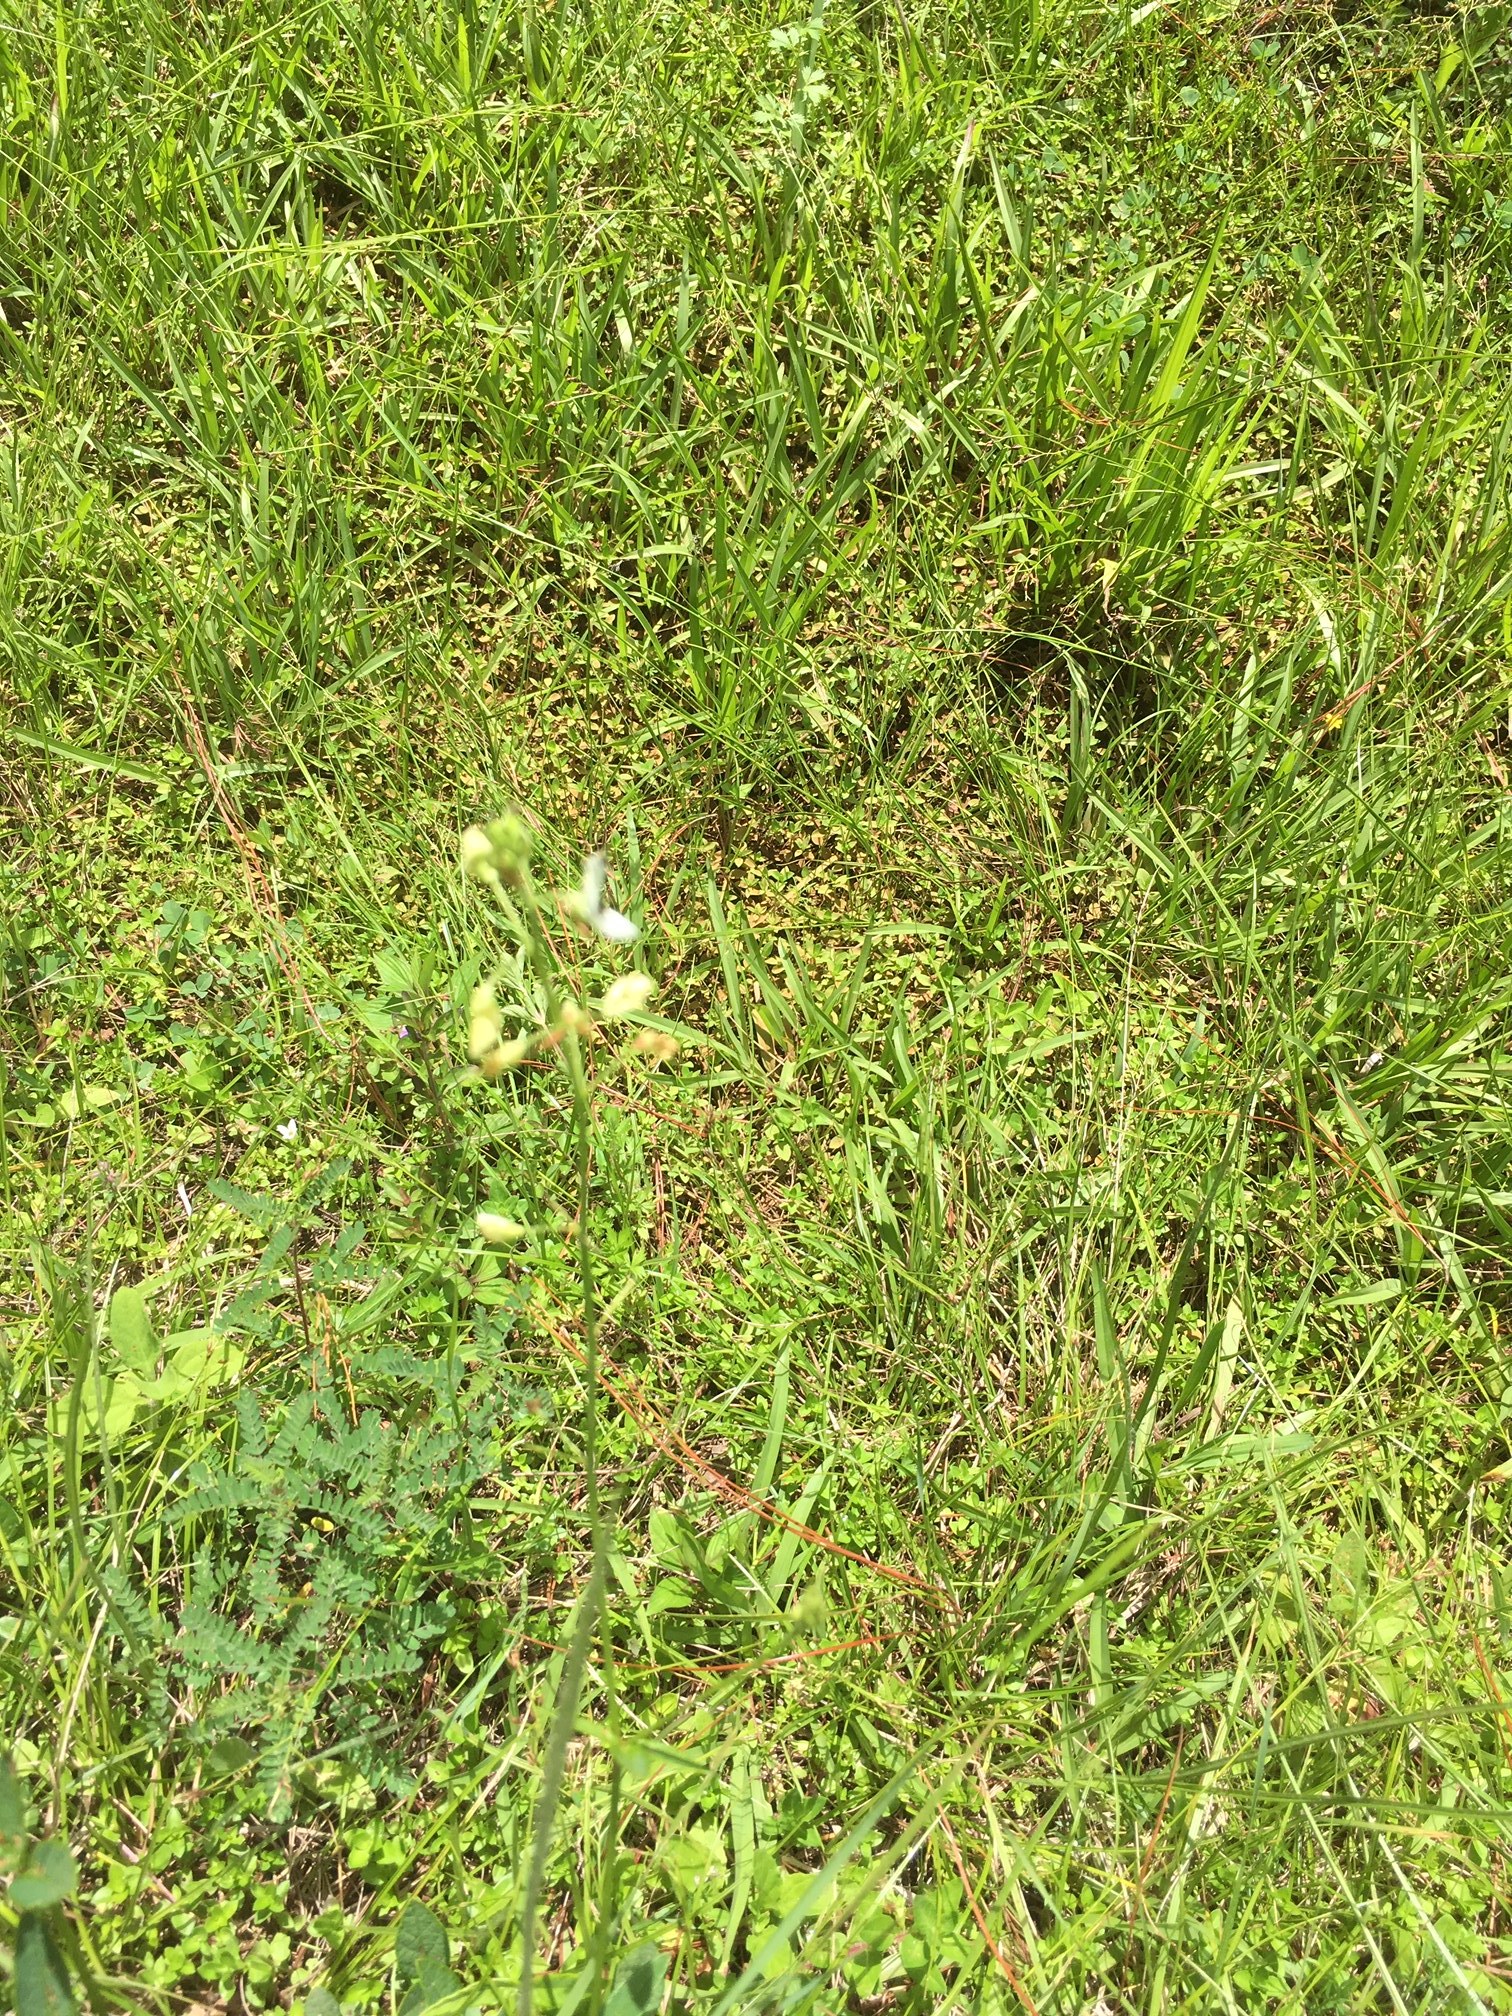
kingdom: Plantae
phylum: Tracheophyta
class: Magnoliopsida
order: Fabales
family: Fabaceae
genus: Desmodium
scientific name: Desmodium macrostachyum
